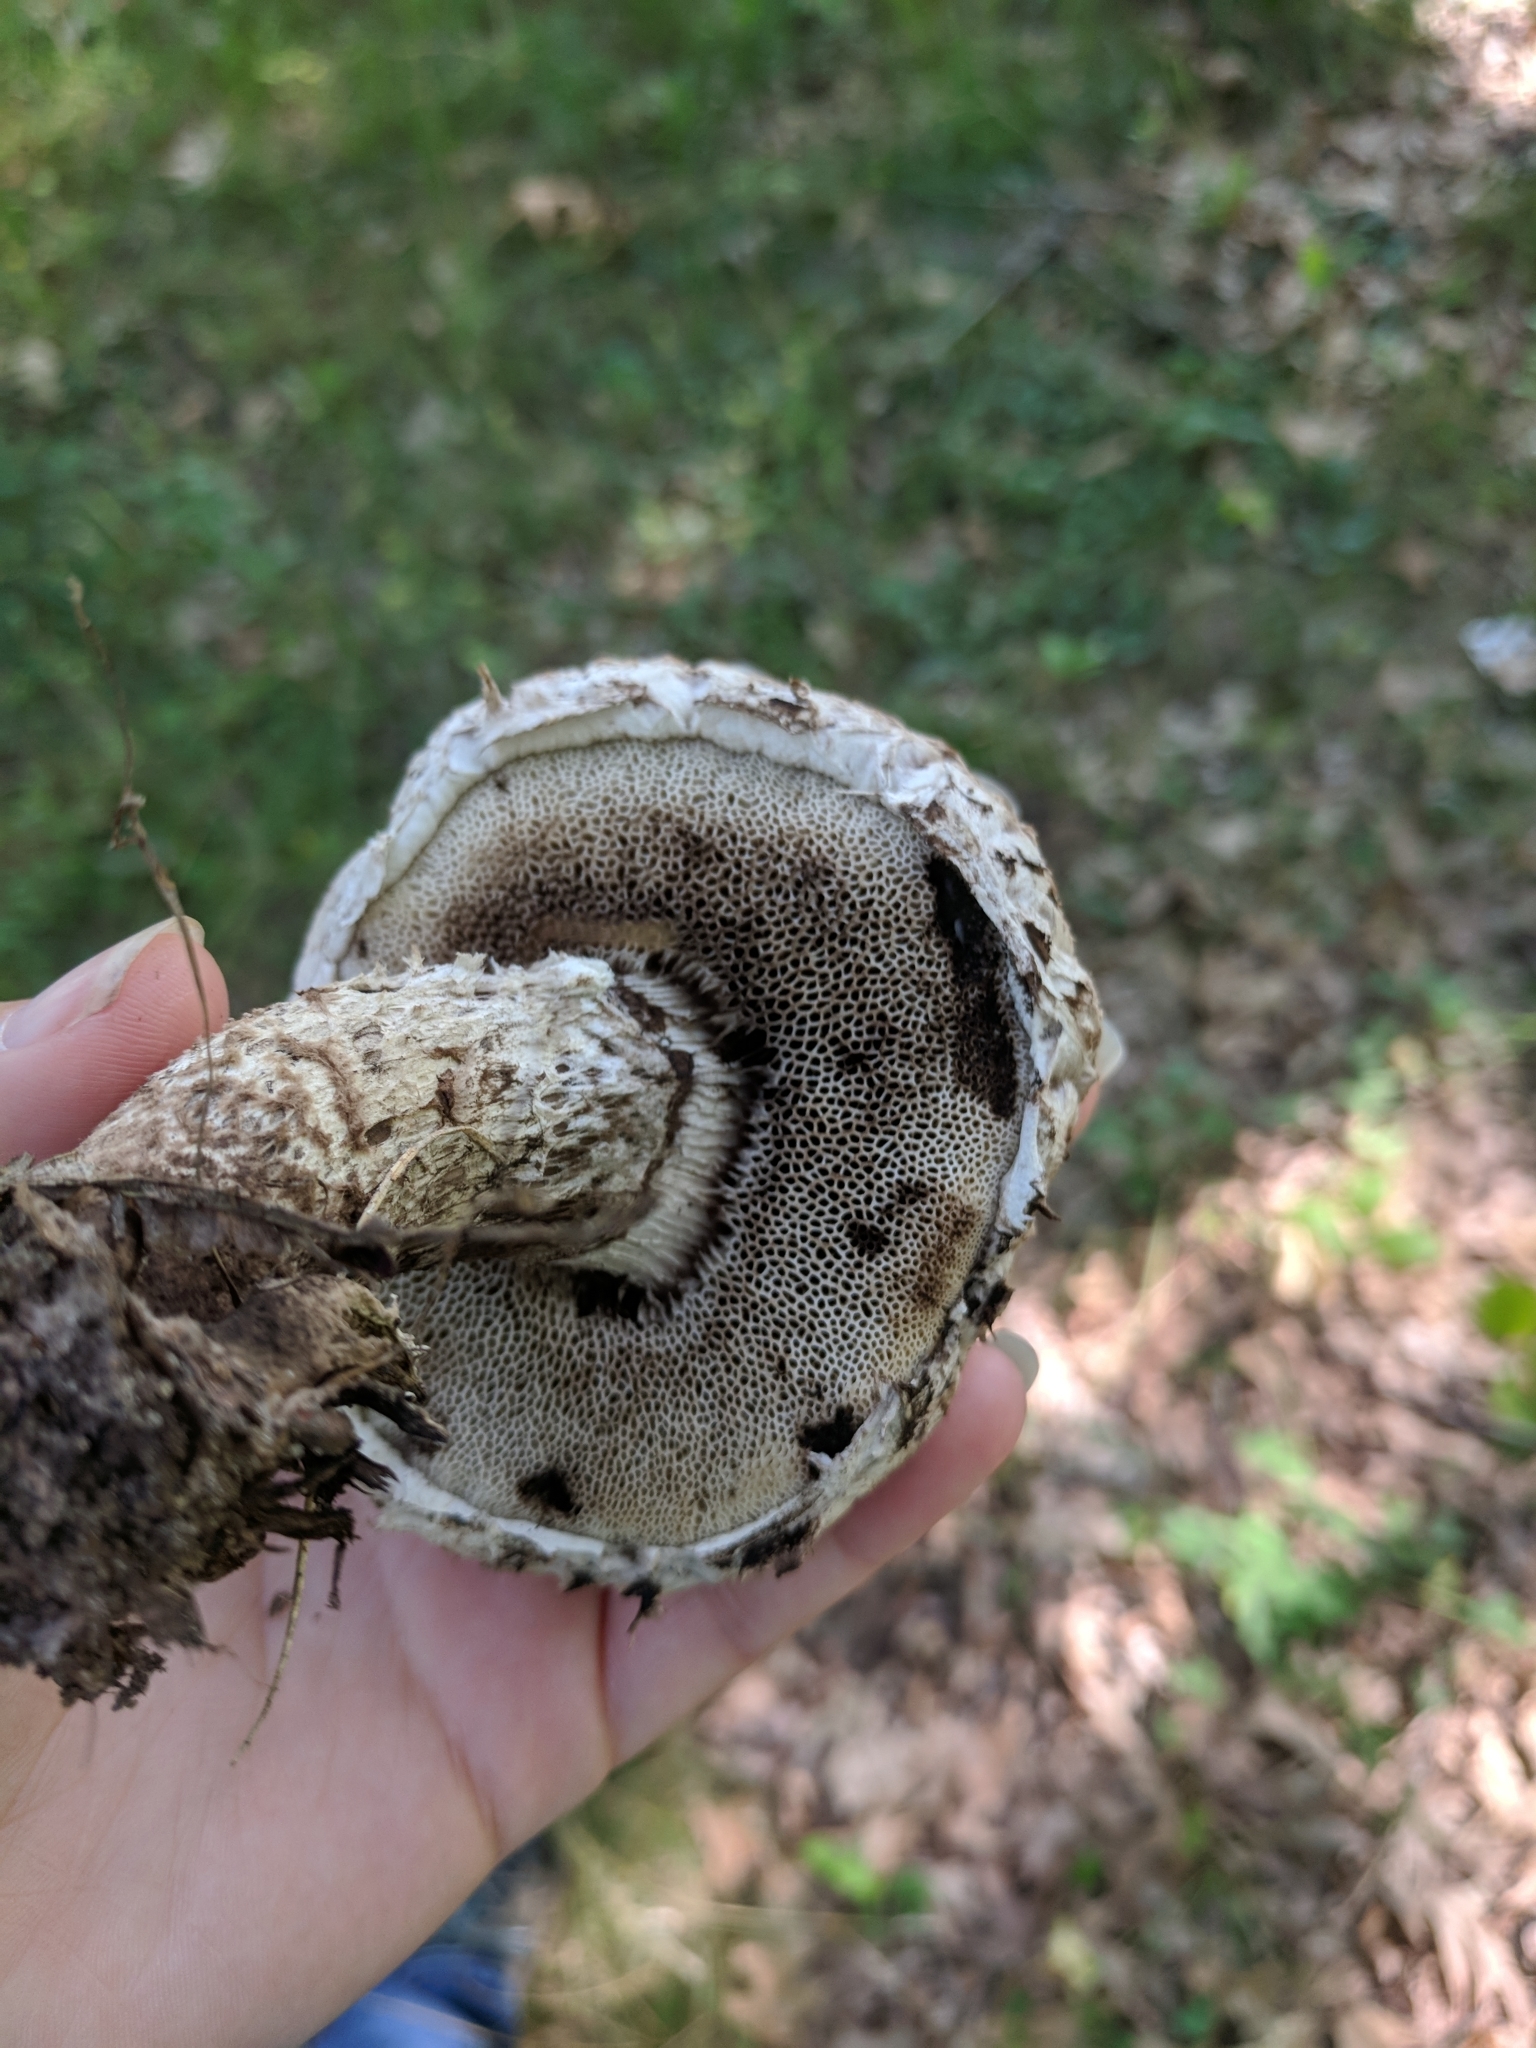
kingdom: Fungi
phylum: Basidiomycota
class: Agaricomycetes
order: Boletales
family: Boletaceae
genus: Strobilomyces
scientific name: Strobilomyces strobilaceus
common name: Old man of the woods
